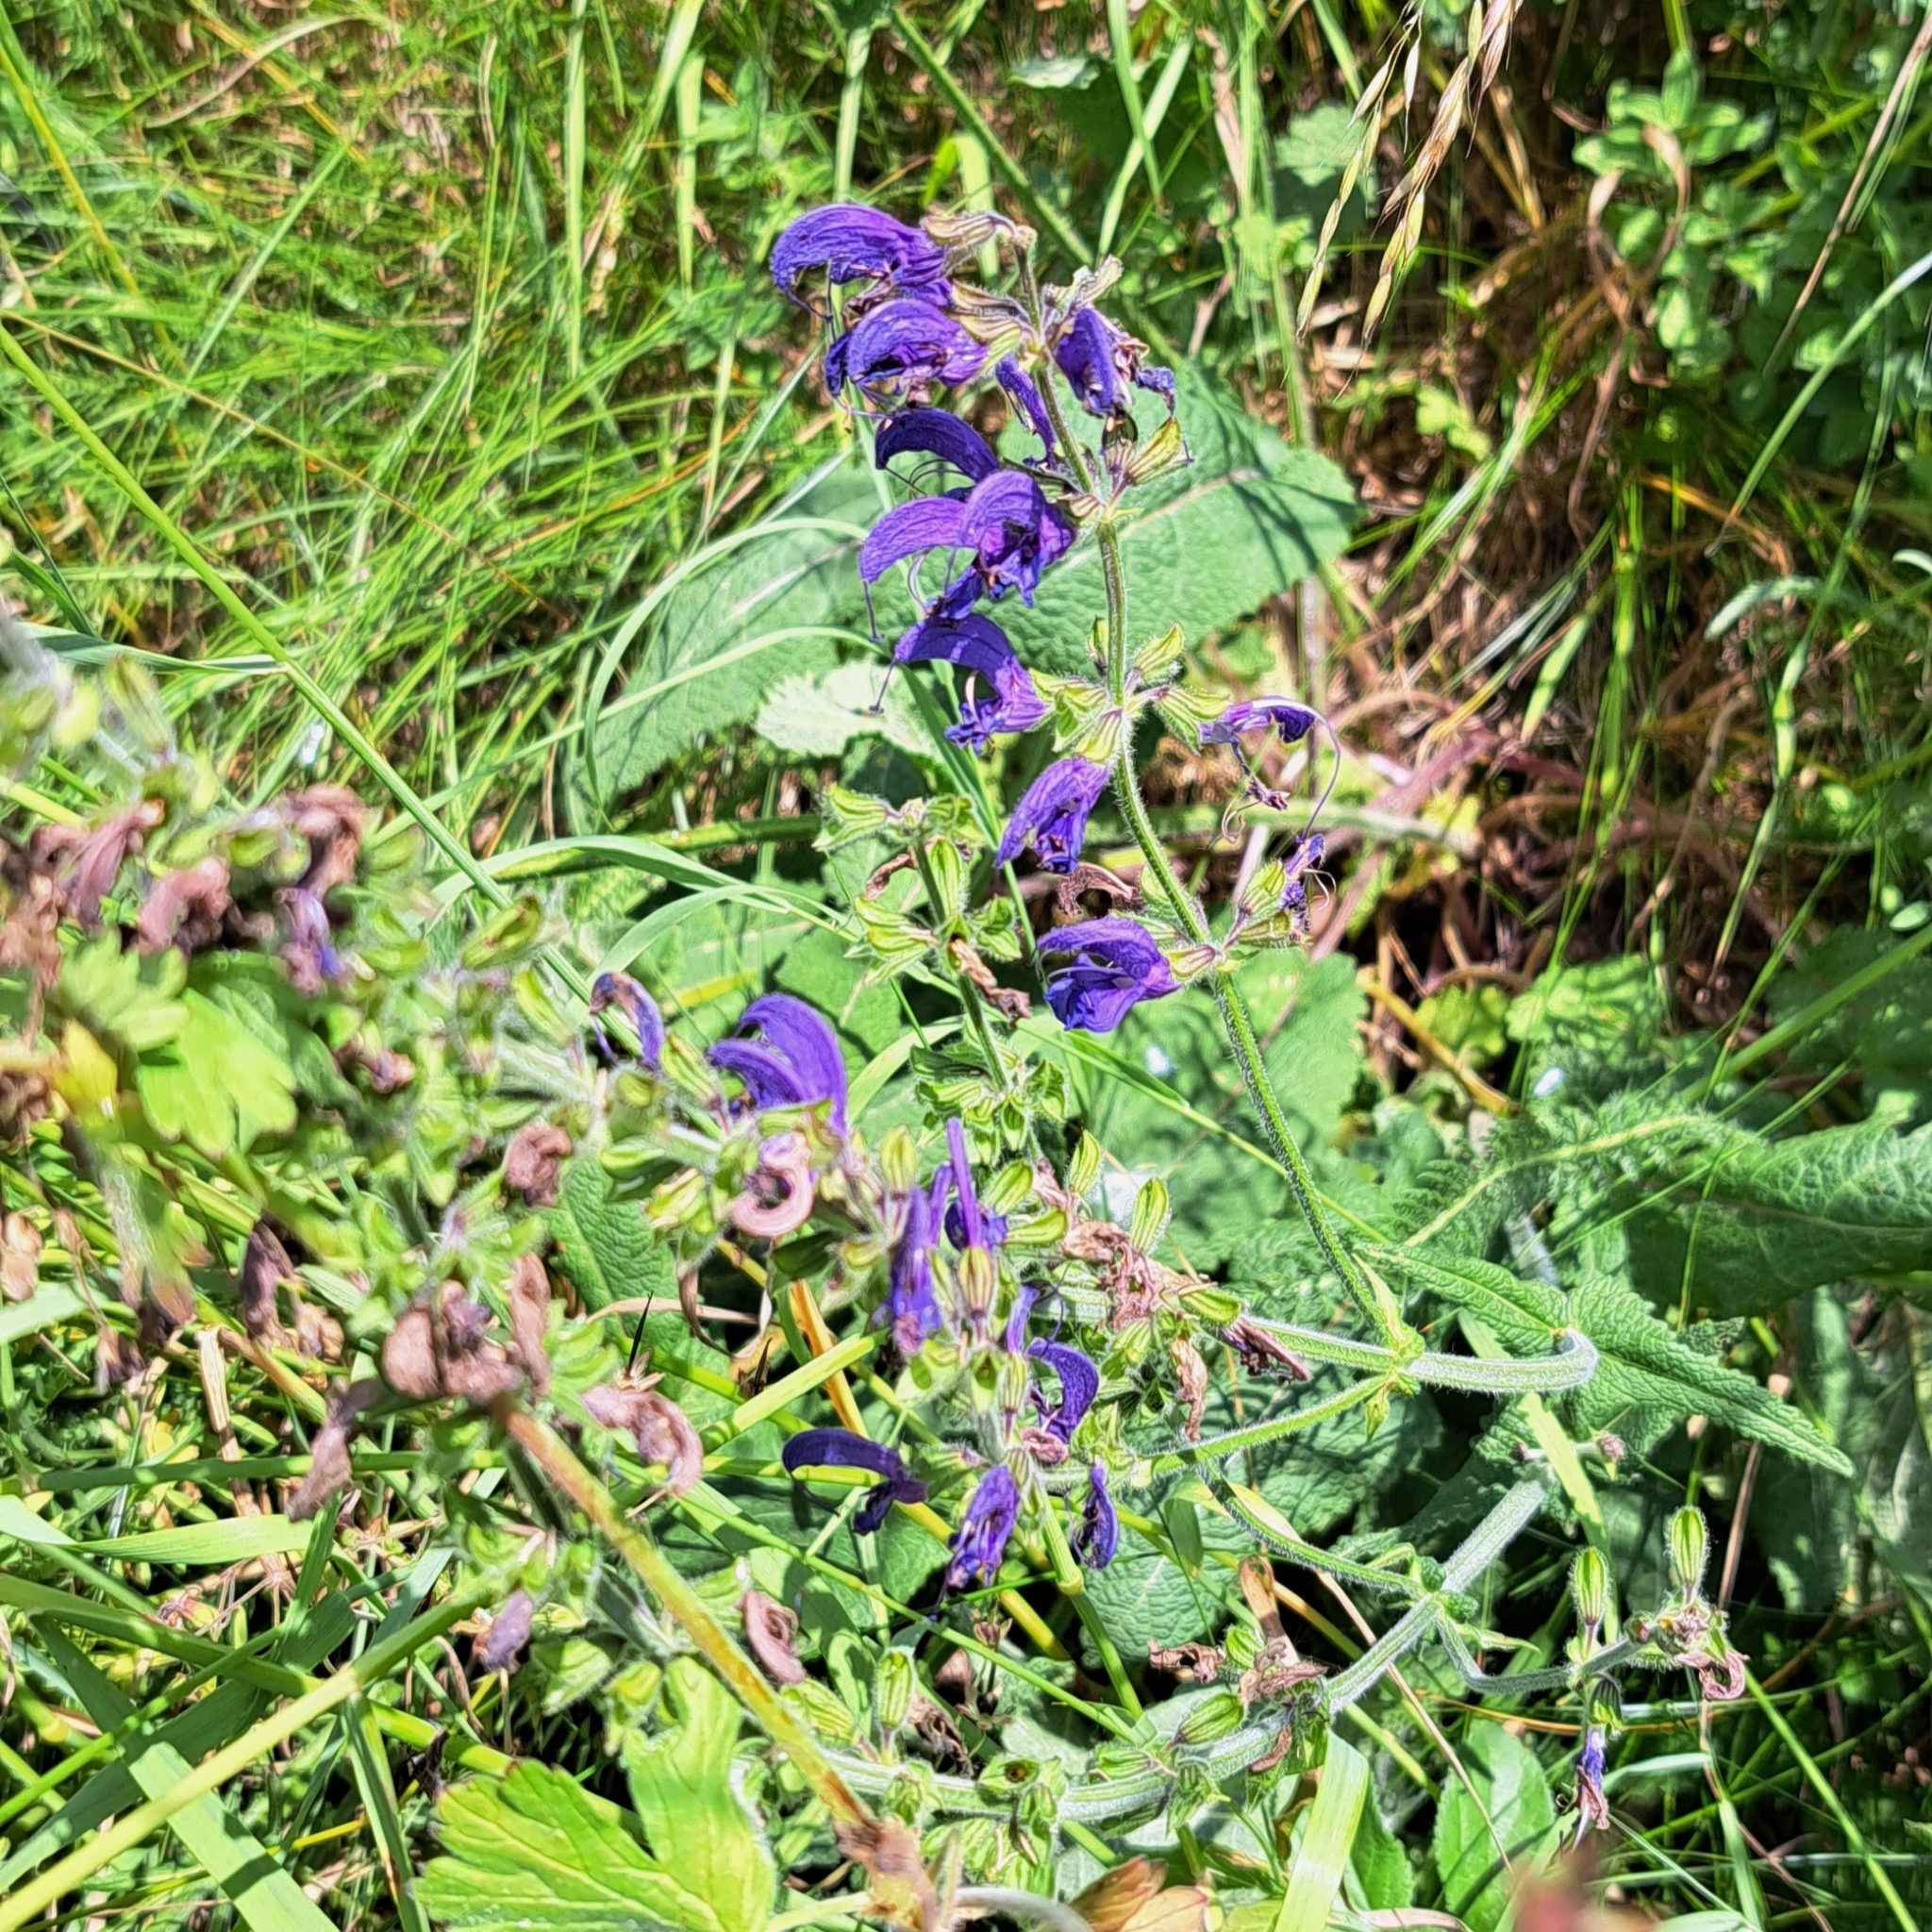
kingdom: Plantae
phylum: Tracheophyta
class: Magnoliopsida
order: Lamiales
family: Lamiaceae
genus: Salvia
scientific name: Salvia pratensis
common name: Meadow sage
